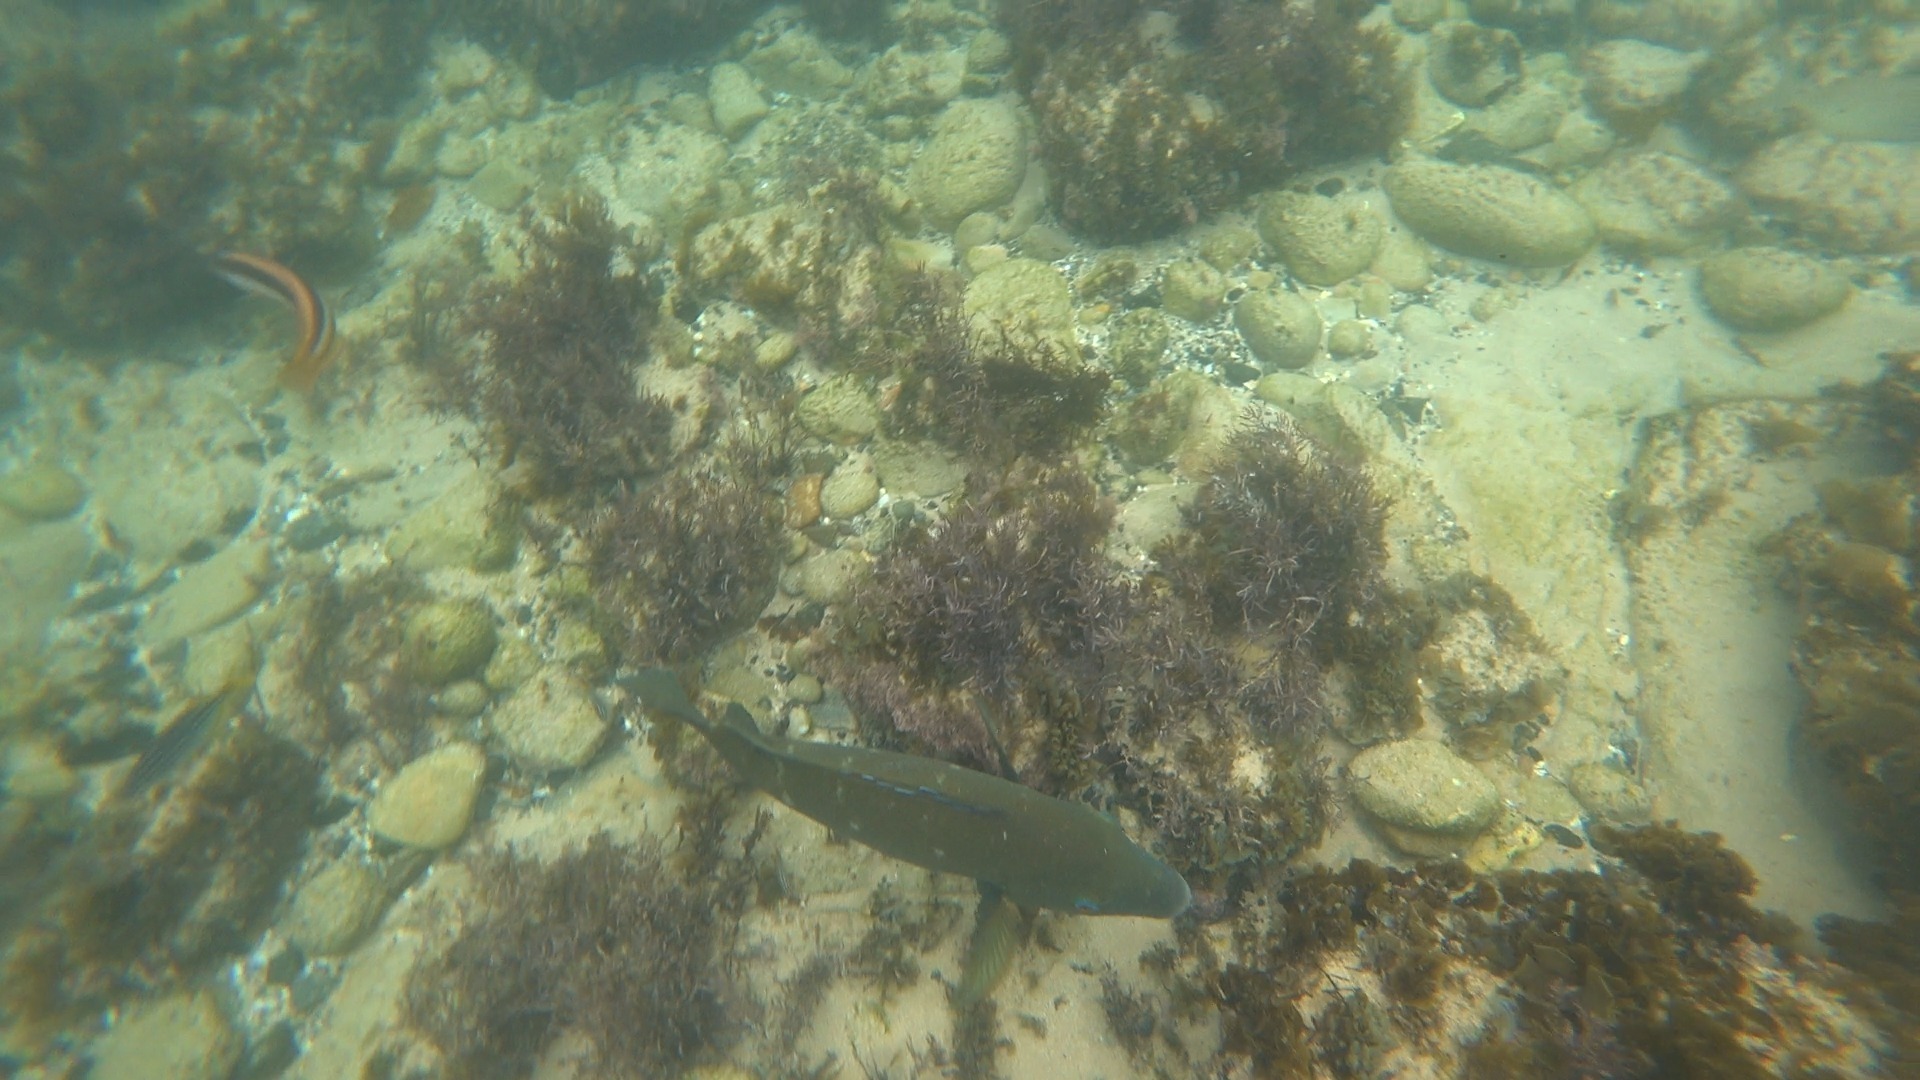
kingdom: Animalia
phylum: Chordata
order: Perciformes
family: Labridae
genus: Achoerodus
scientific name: Achoerodus viridis
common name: Brown groper
